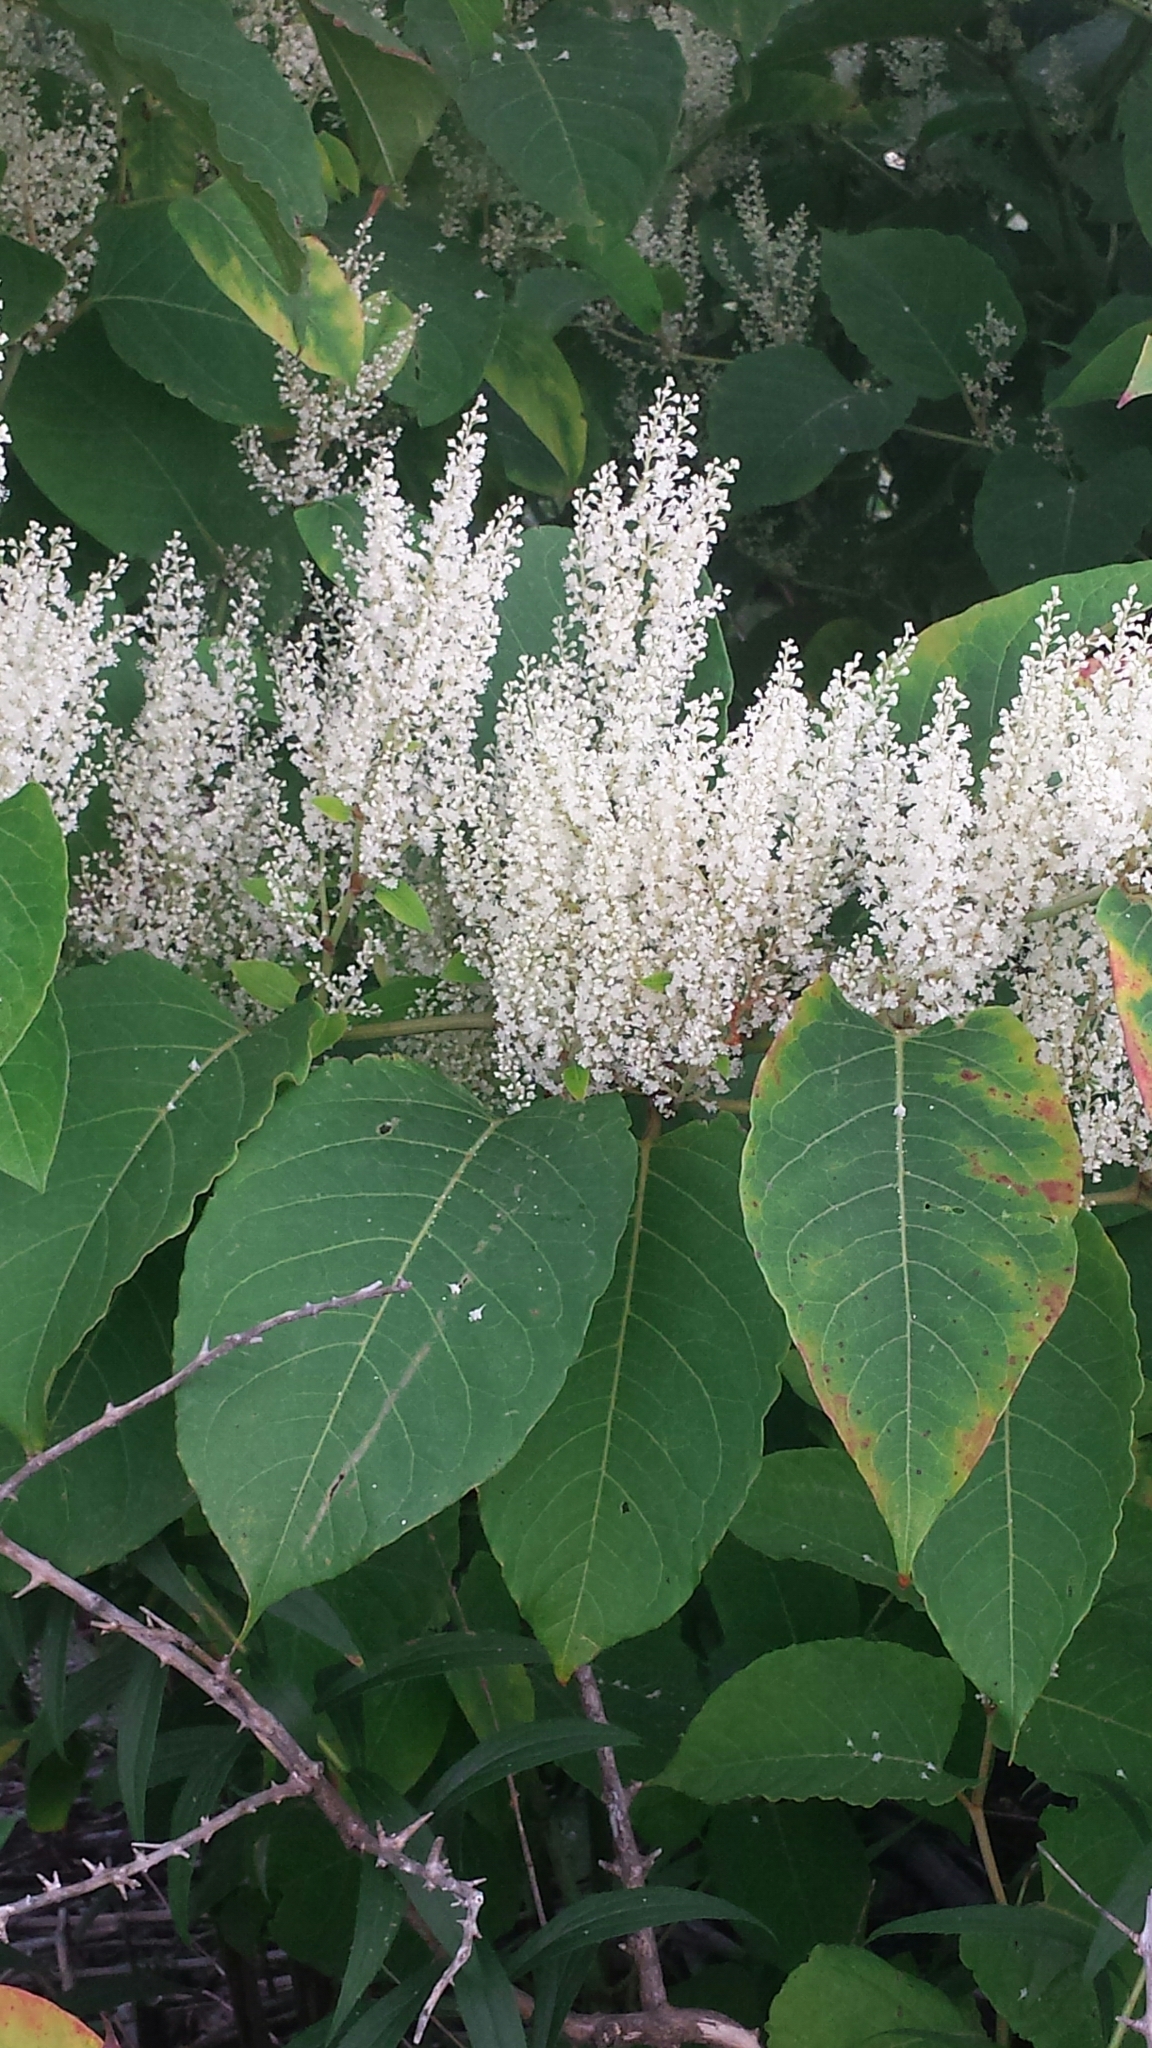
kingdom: Plantae
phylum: Tracheophyta
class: Magnoliopsida
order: Caryophyllales
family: Polygonaceae
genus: Reynoutria
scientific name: Reynoutria japonica
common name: Japanese knotweed
